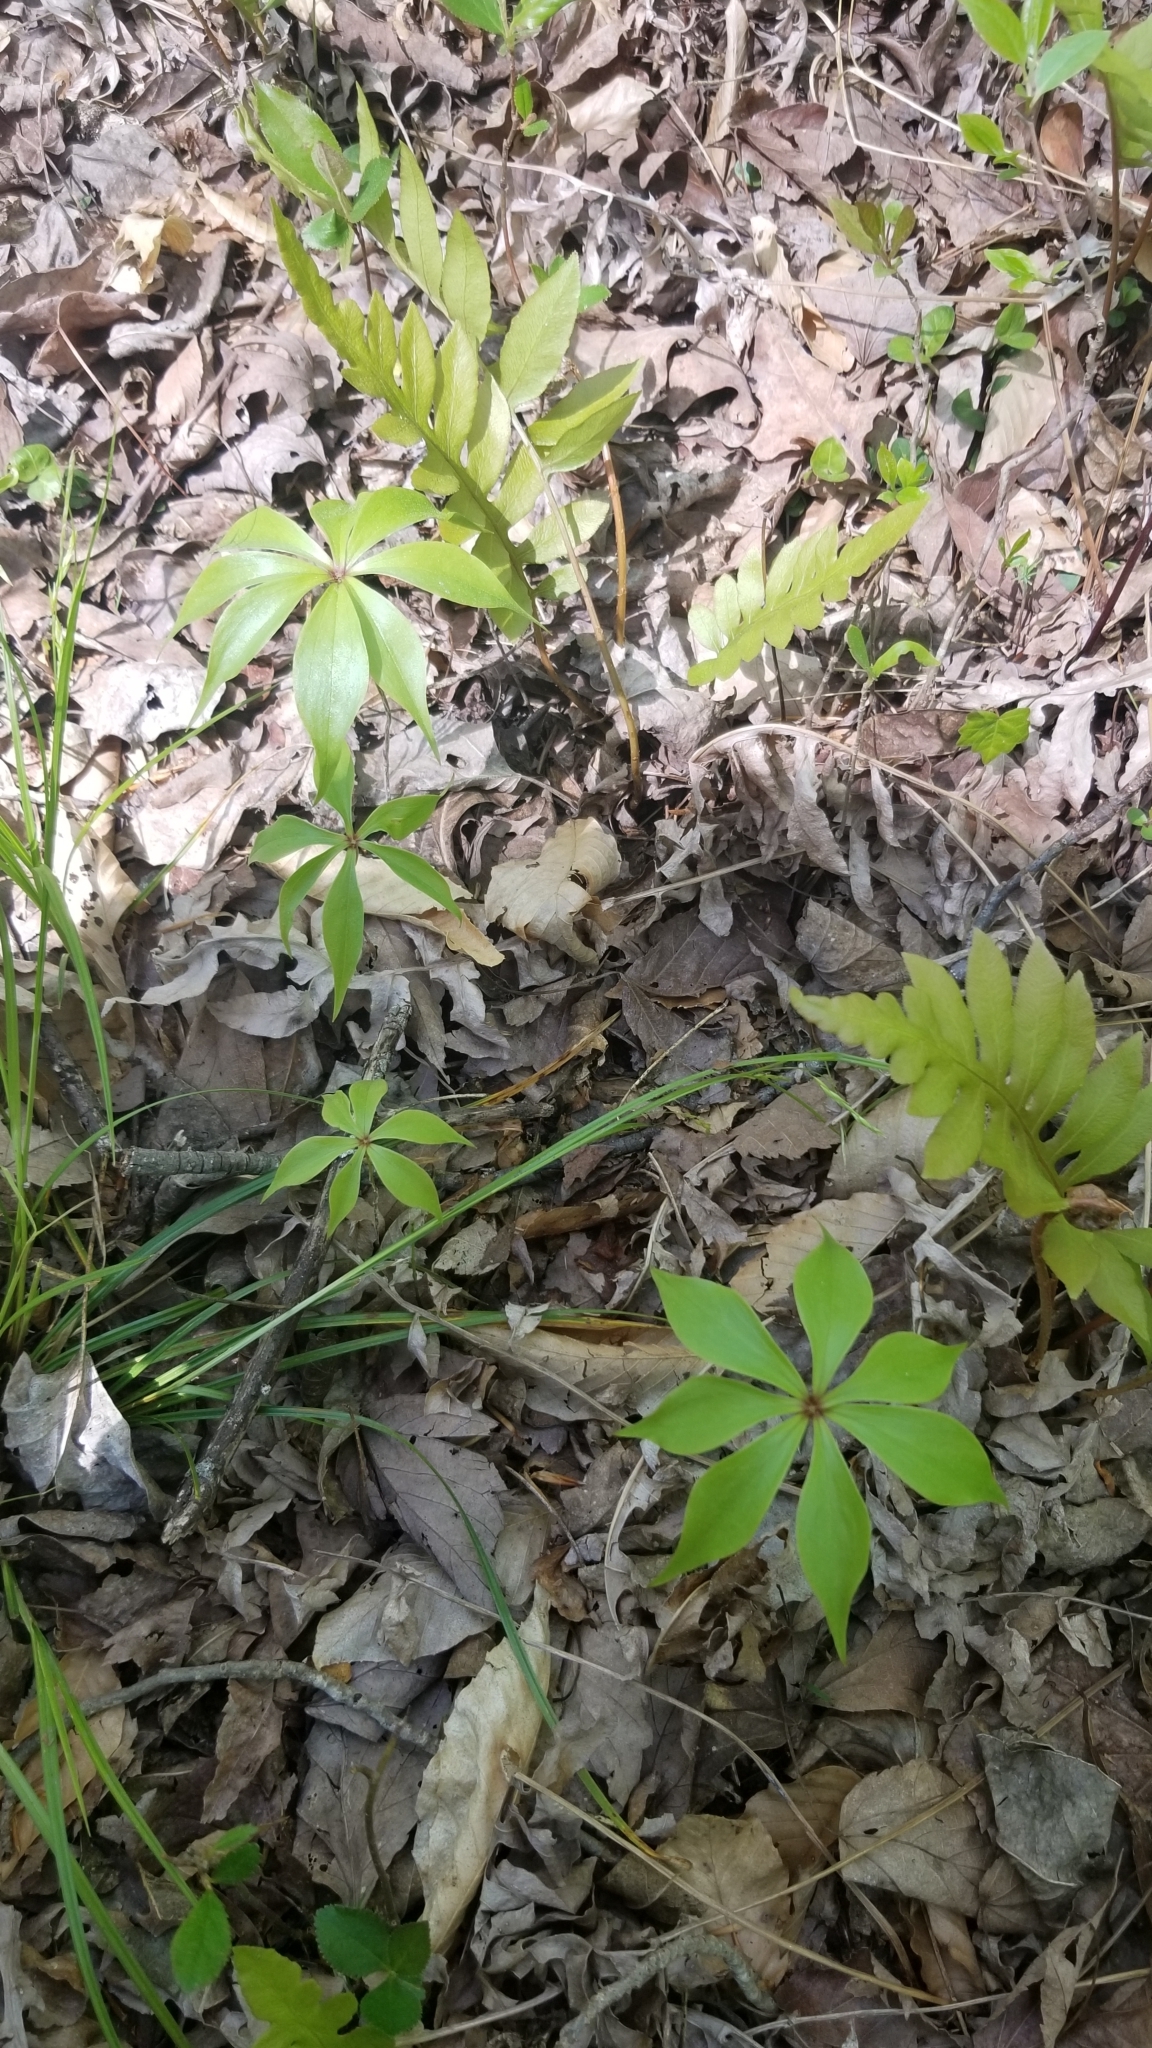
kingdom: Plantae
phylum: Tracheophyta
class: Liliopsida
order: Liliales
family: Liliaceae
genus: Medeola
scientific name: Medeola virginiana
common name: Indian cucumber-root
